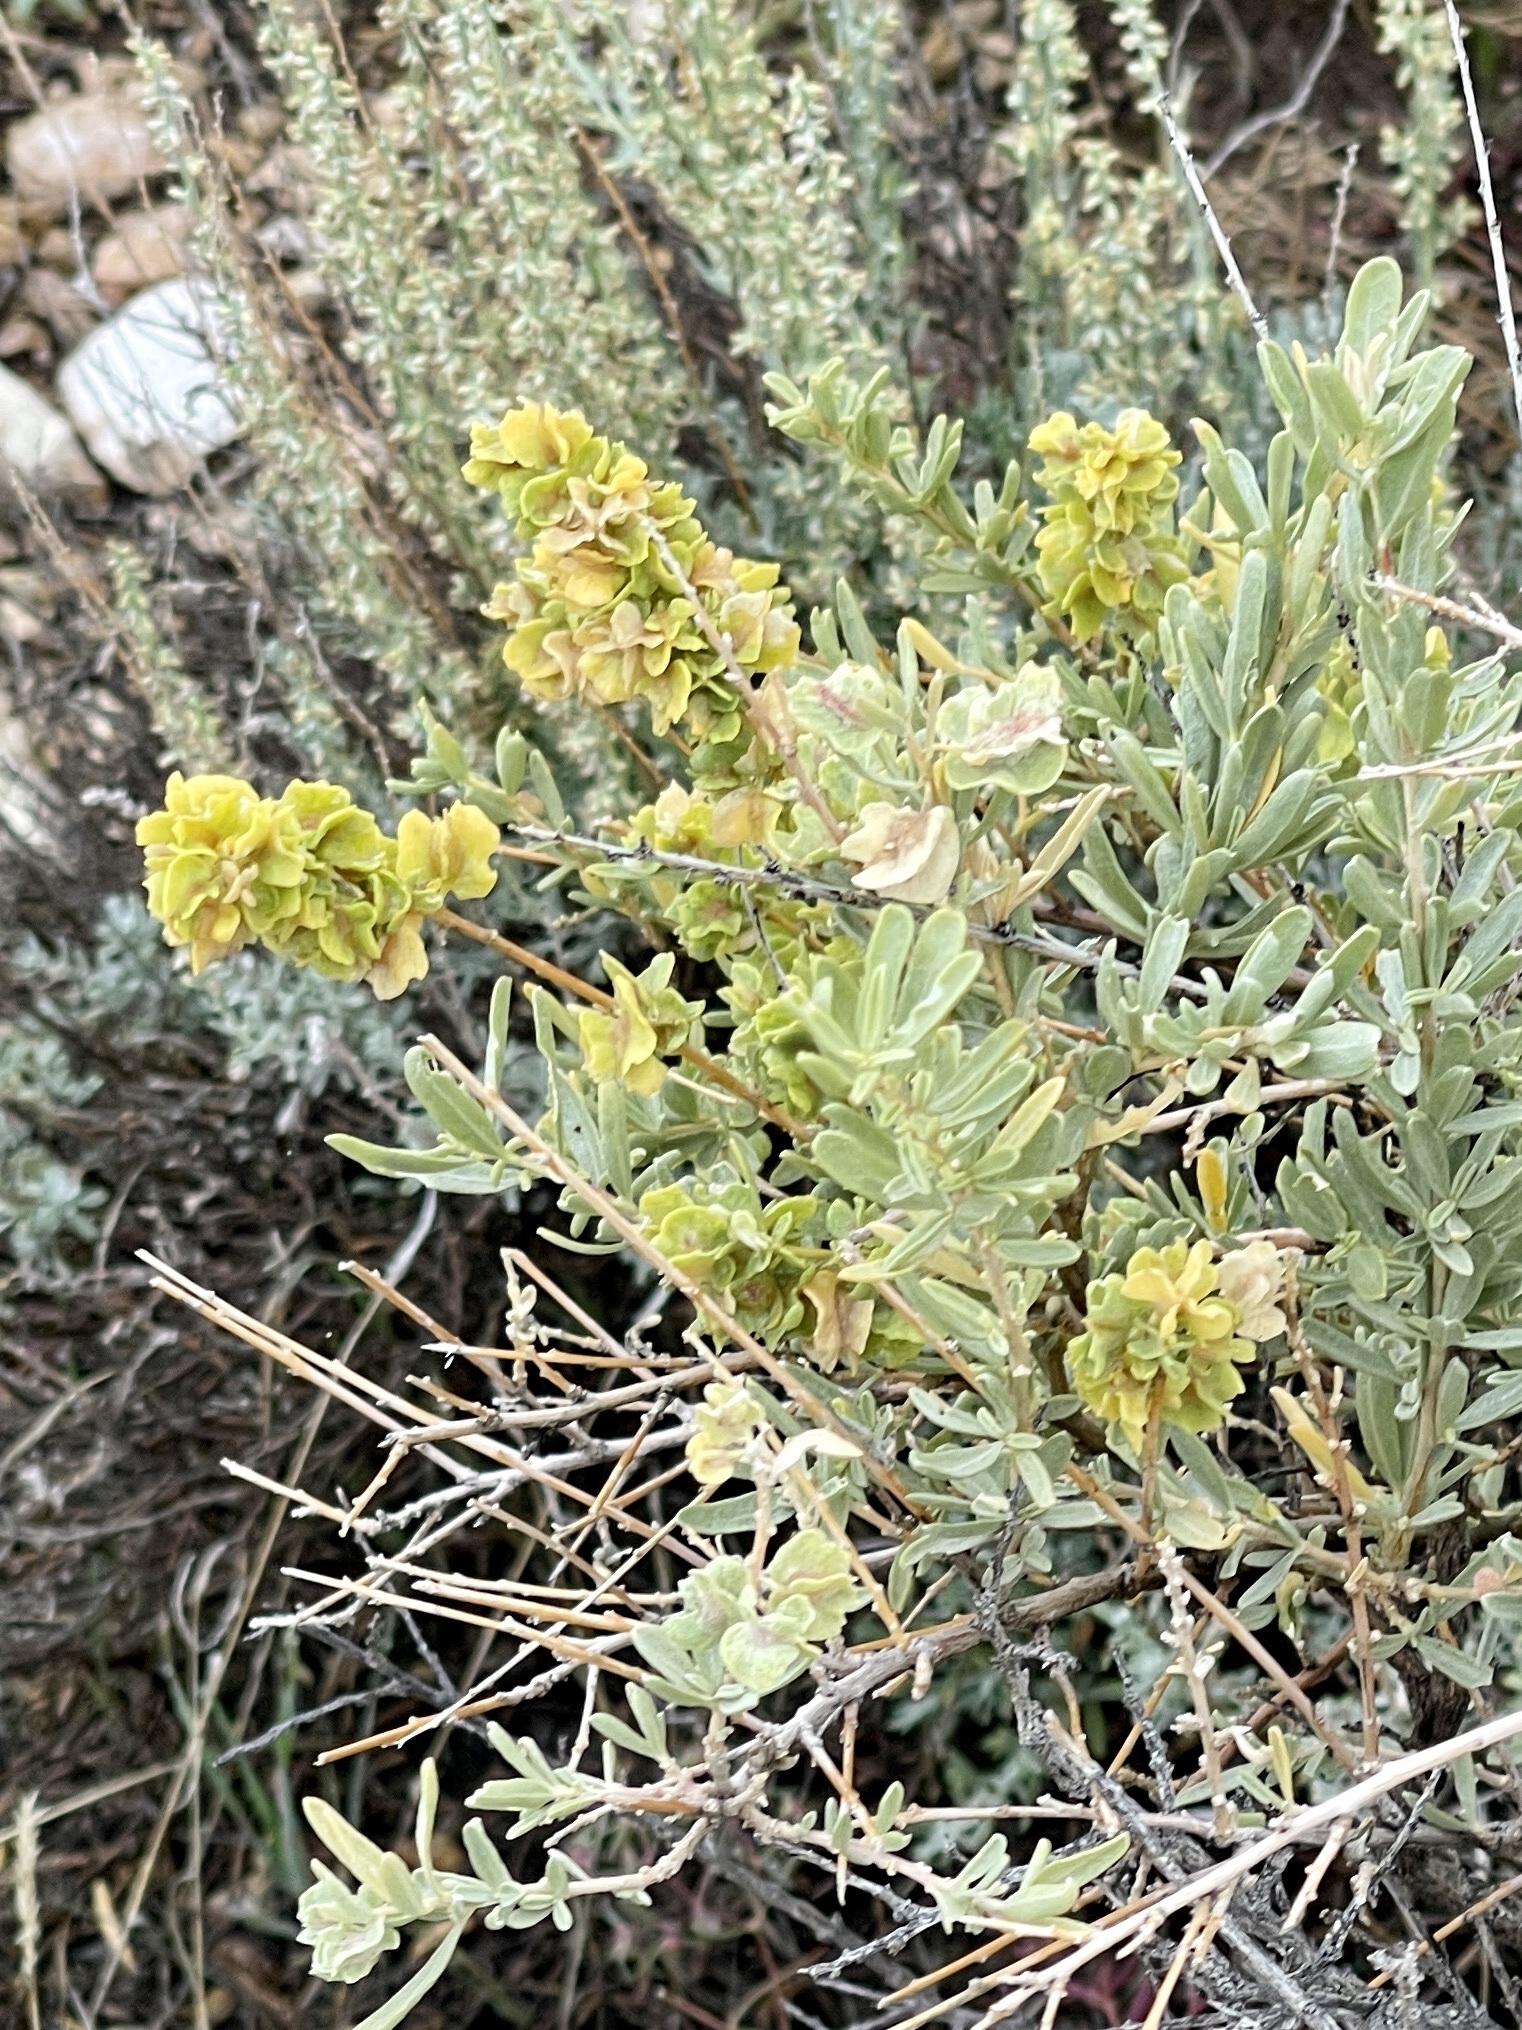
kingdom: Plantae
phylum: Tracheophyta
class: Magnoliopsida
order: Caryophyllales
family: Amaranthaceae
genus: Atriplex
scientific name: Atriplex canescens
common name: Four-wing saltbush
